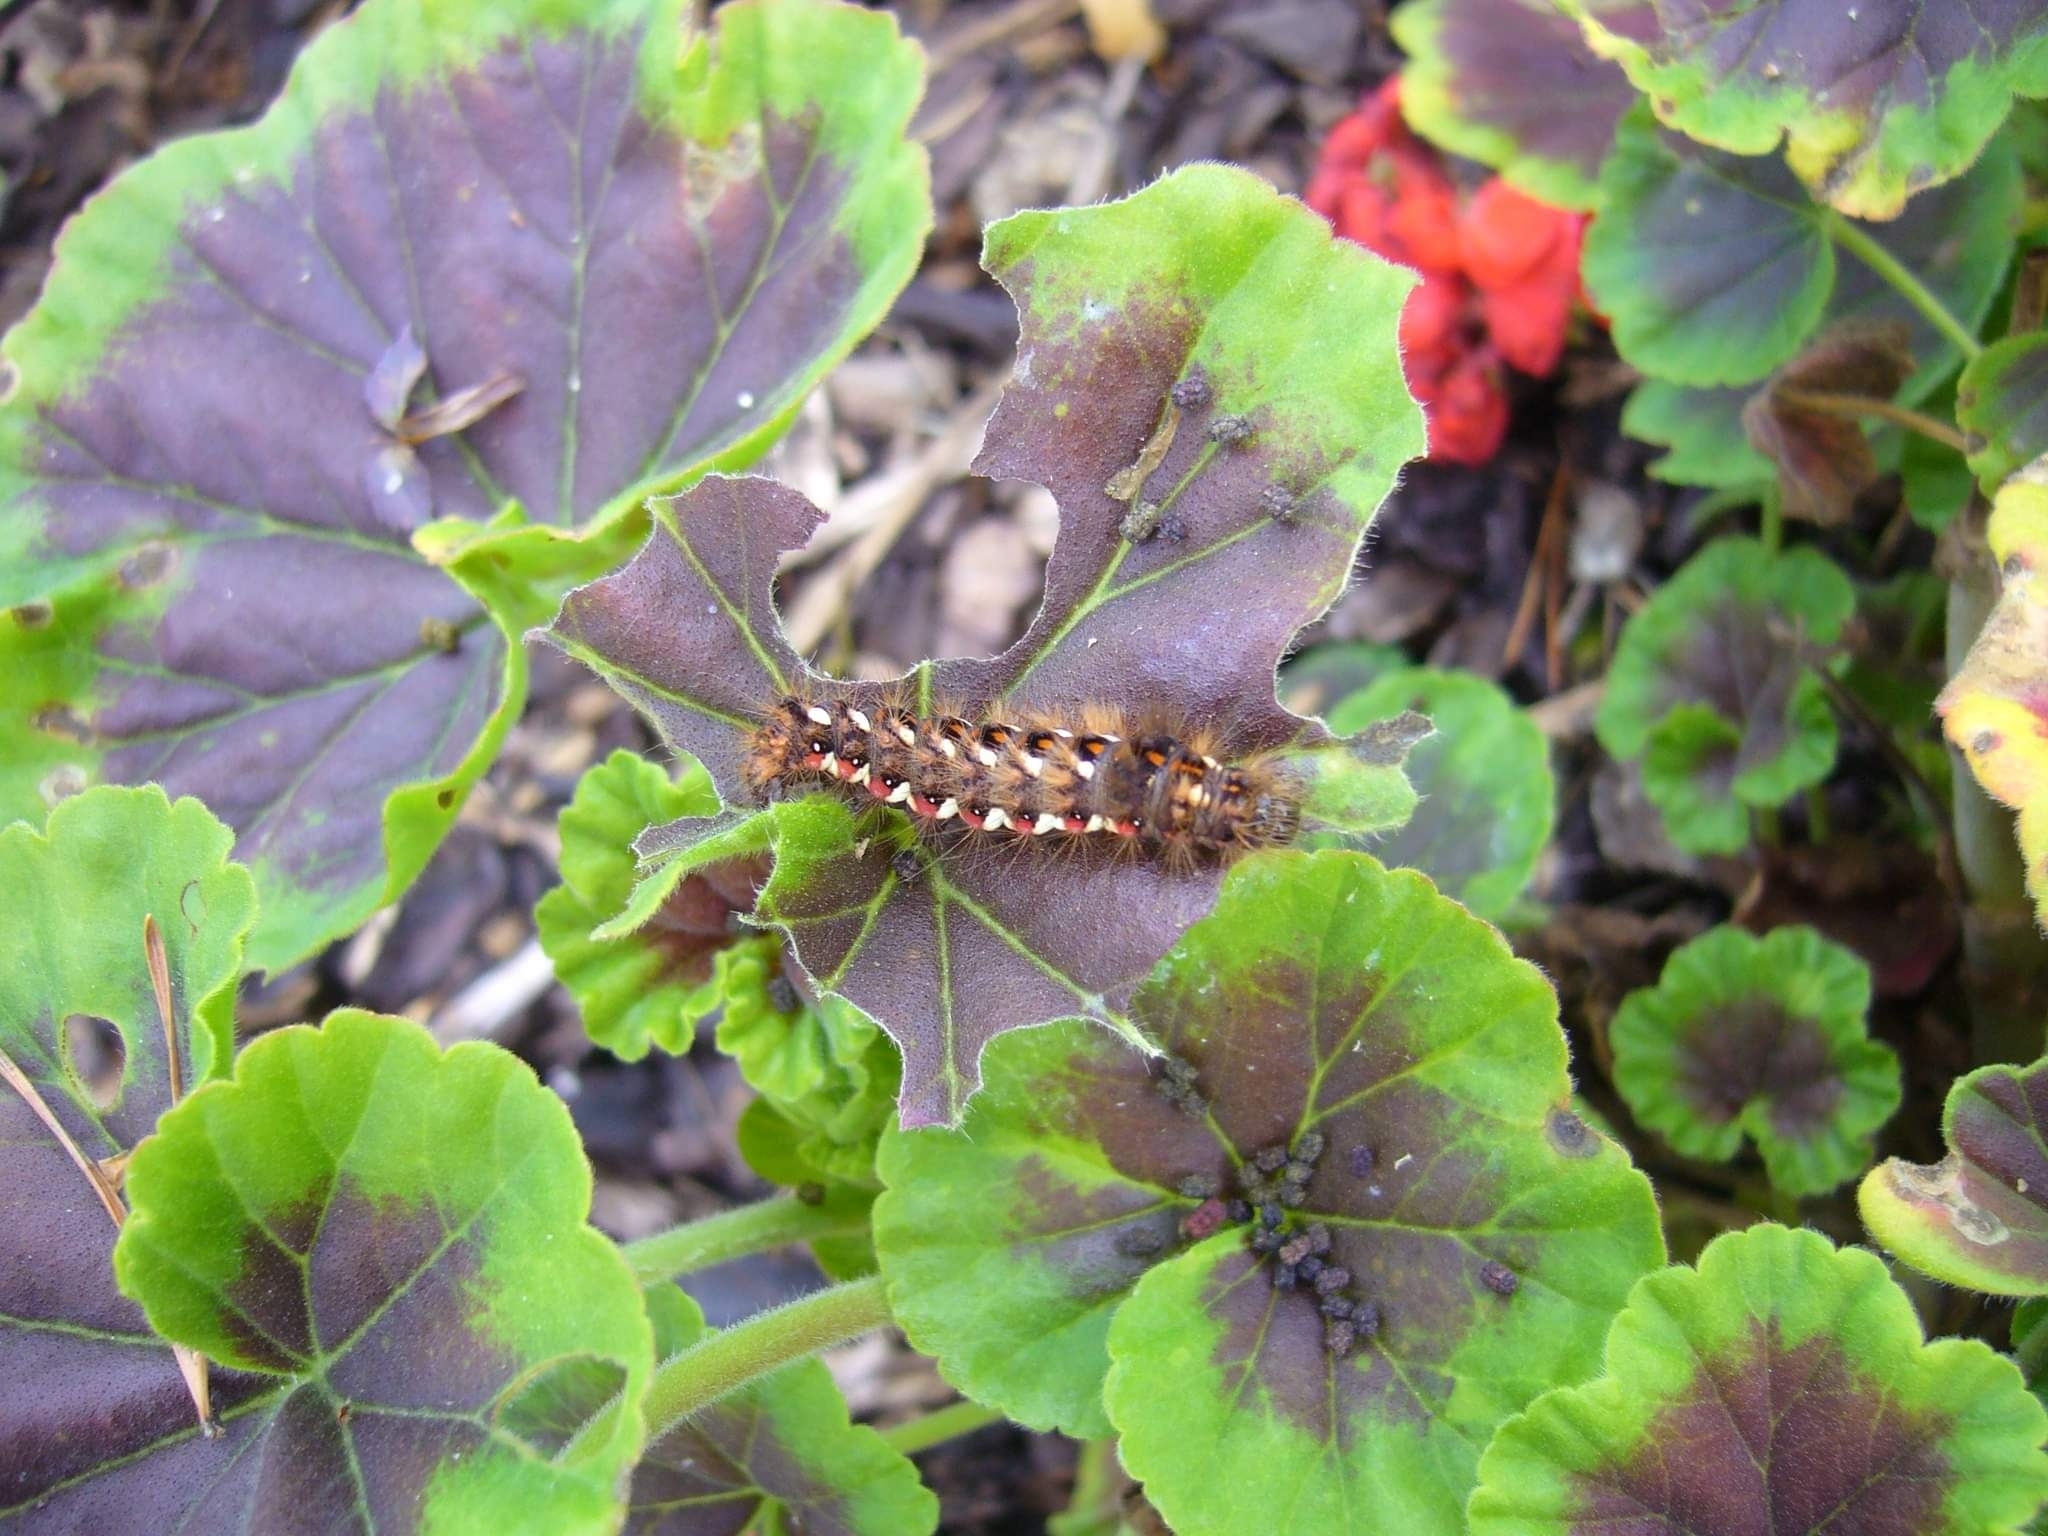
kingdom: Animalia
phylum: Arthropoda
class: Insecta
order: Lepidoptera
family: Noctuidae
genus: Acronicta
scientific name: Acronicta rumicis
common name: Knot grass
